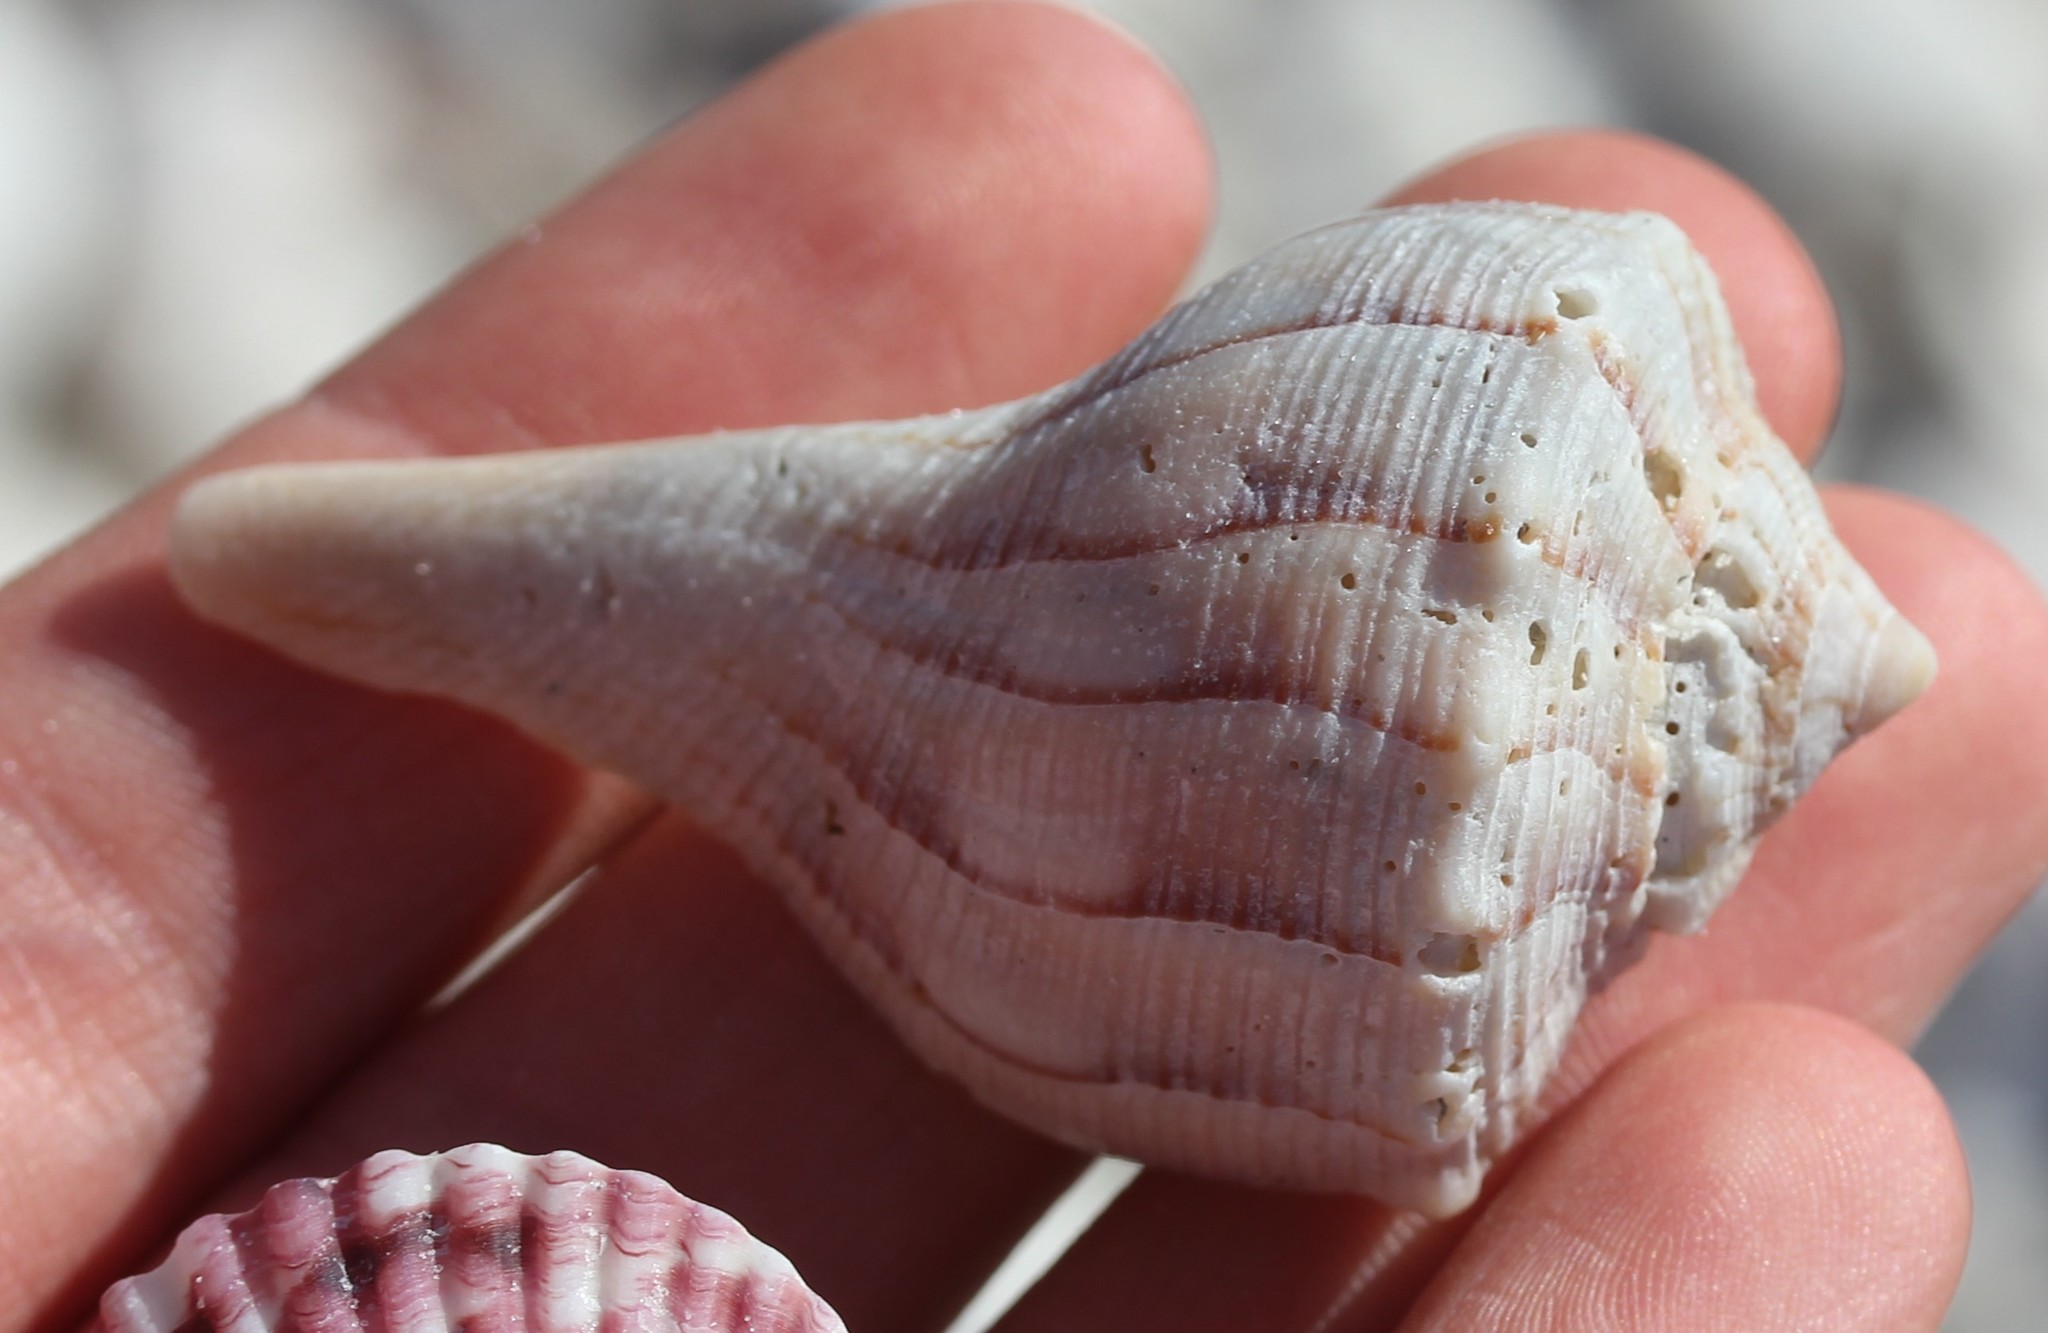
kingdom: Animalia
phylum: Mollusca
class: Gastropoda
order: Neogastropoda
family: Busyconidae
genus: Sinistrofulgur
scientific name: Sinistrofulgur sinistrum
